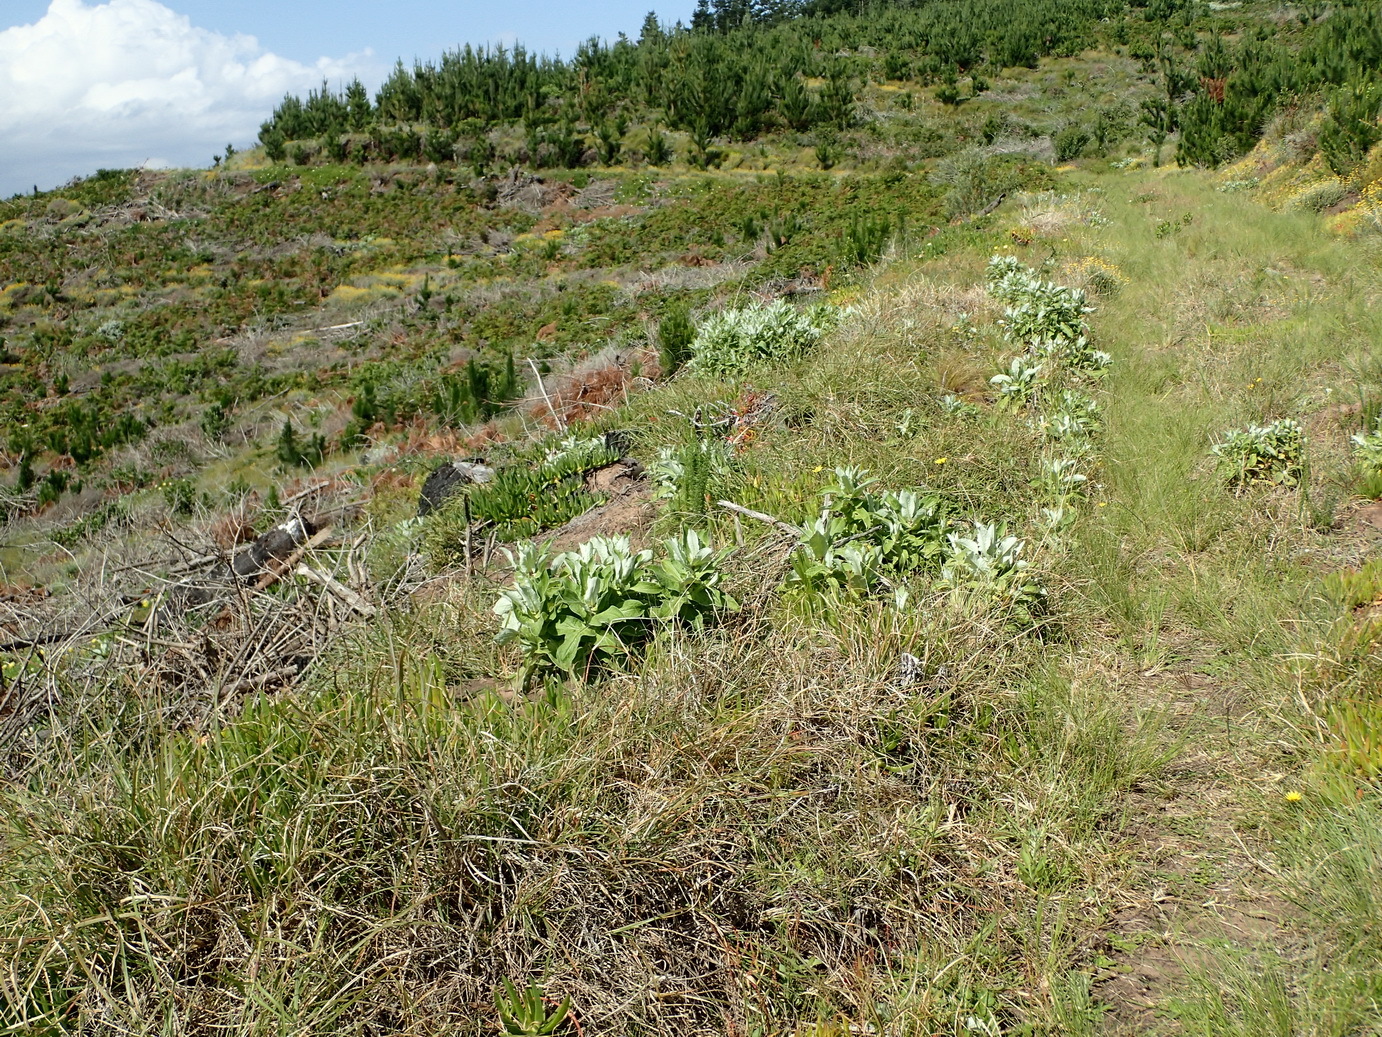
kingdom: Plantae
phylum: Tracheophyta
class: Magnoliopsida
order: Asterales
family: Asteraceae
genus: Helichrysum
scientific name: Helichrysum foetidum
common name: Stinking everlasting
